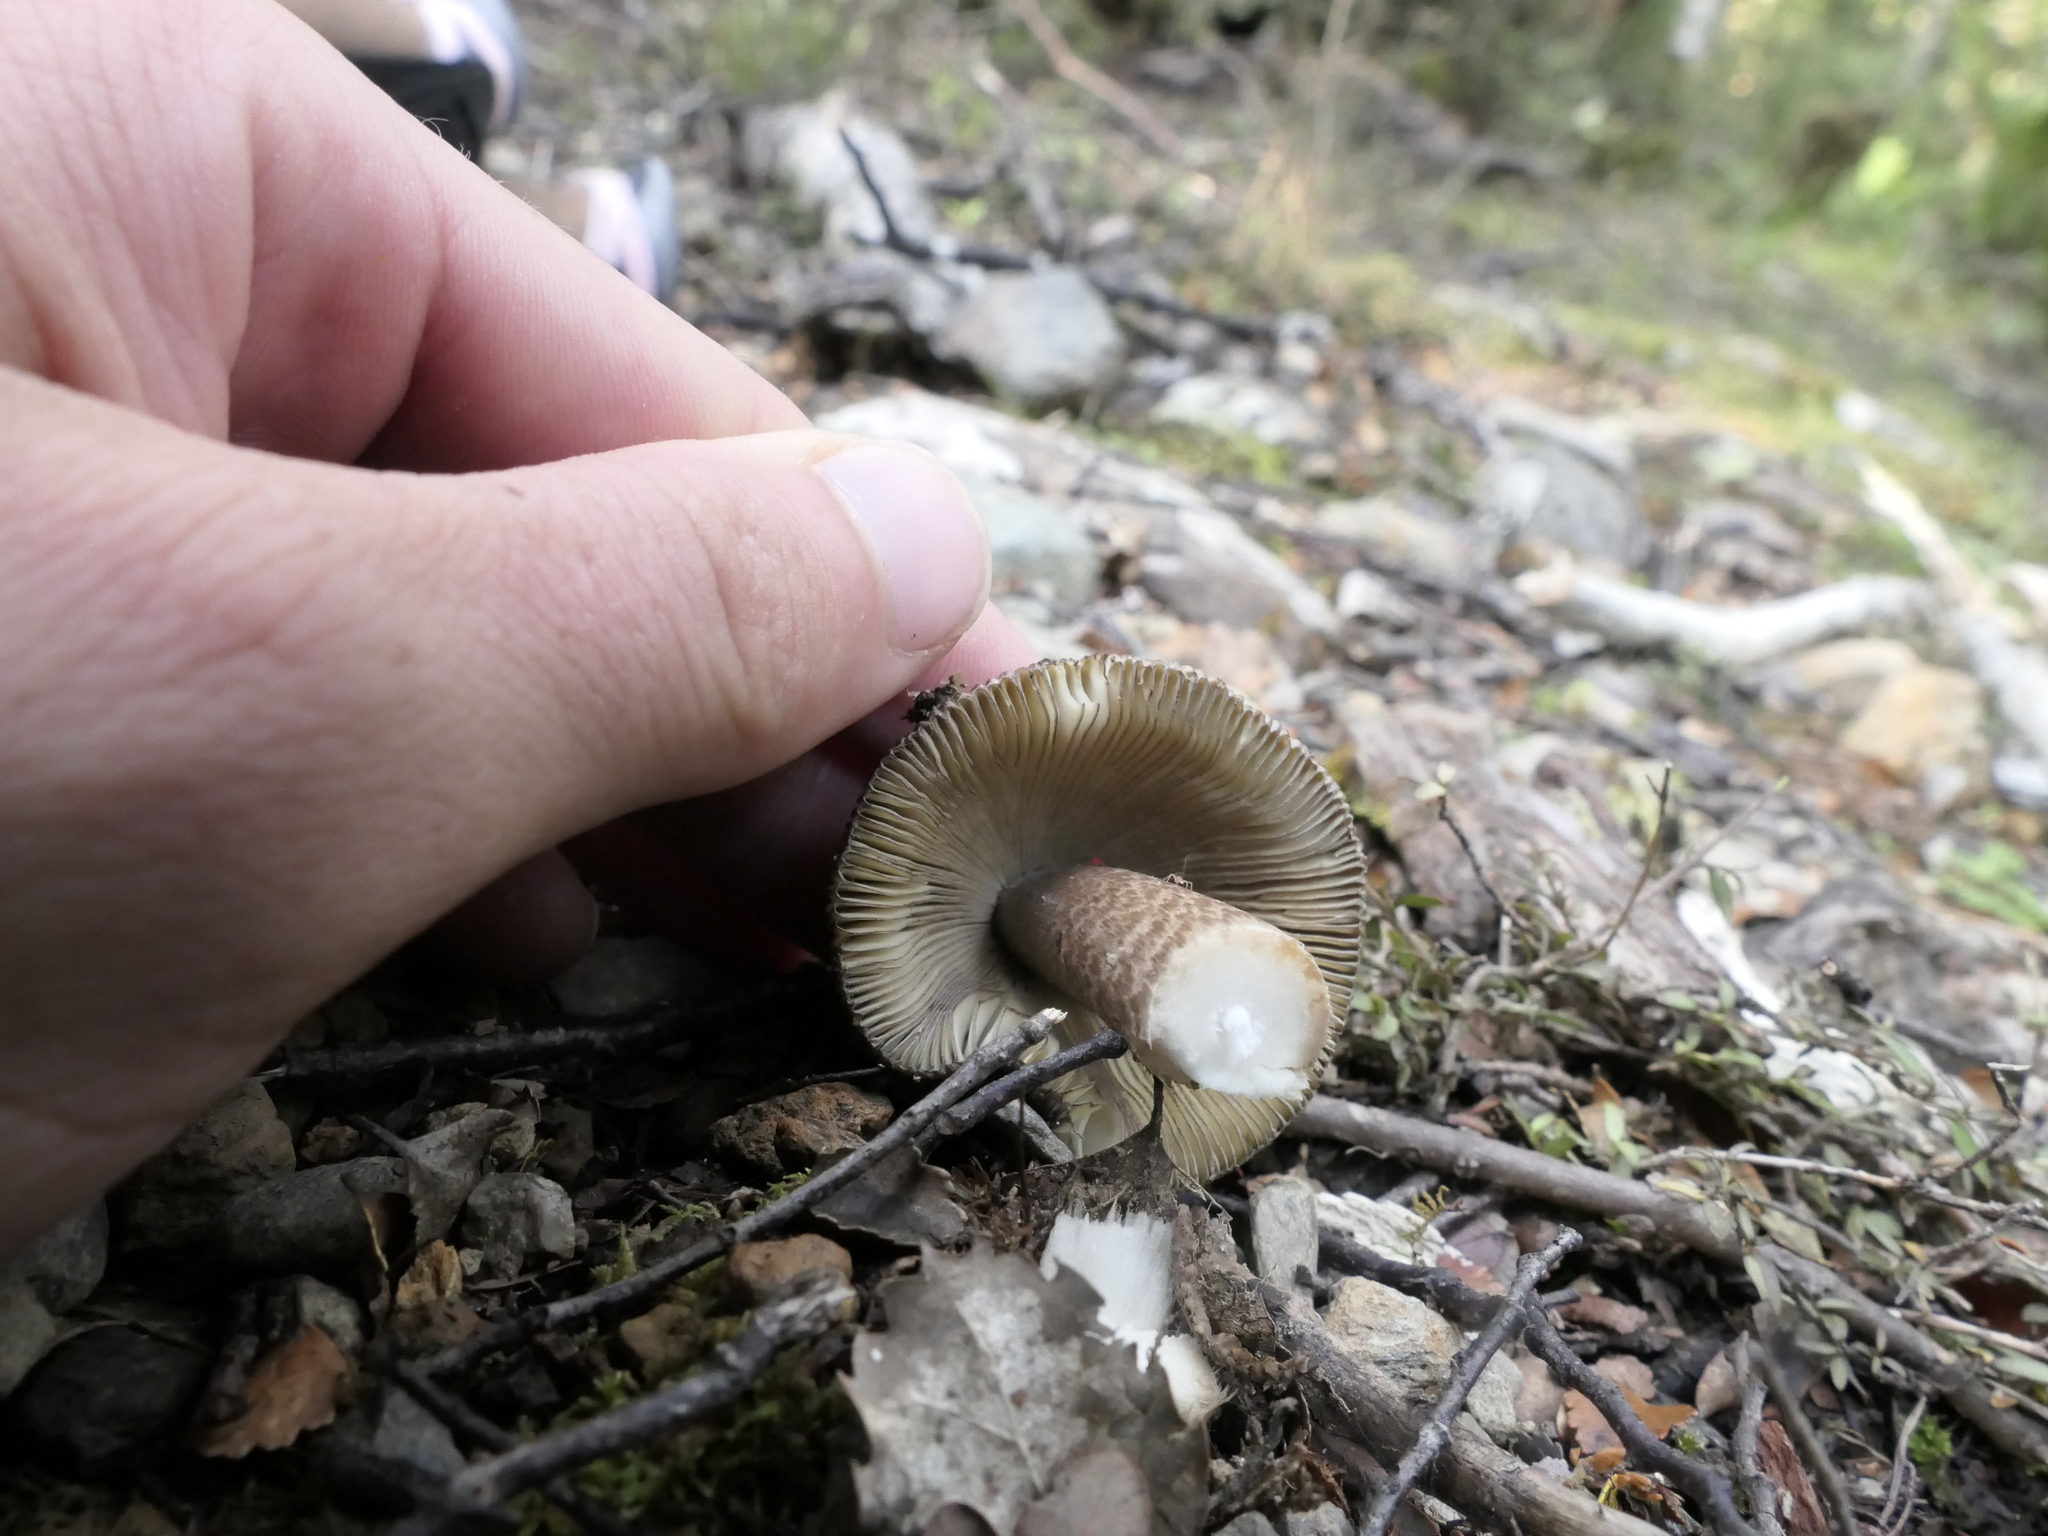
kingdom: Fungi
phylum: Basidiomycota
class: Agaricomycetes
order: Agaricales
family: Amanitaceae
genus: Amanita
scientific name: Amanita pekeoides
